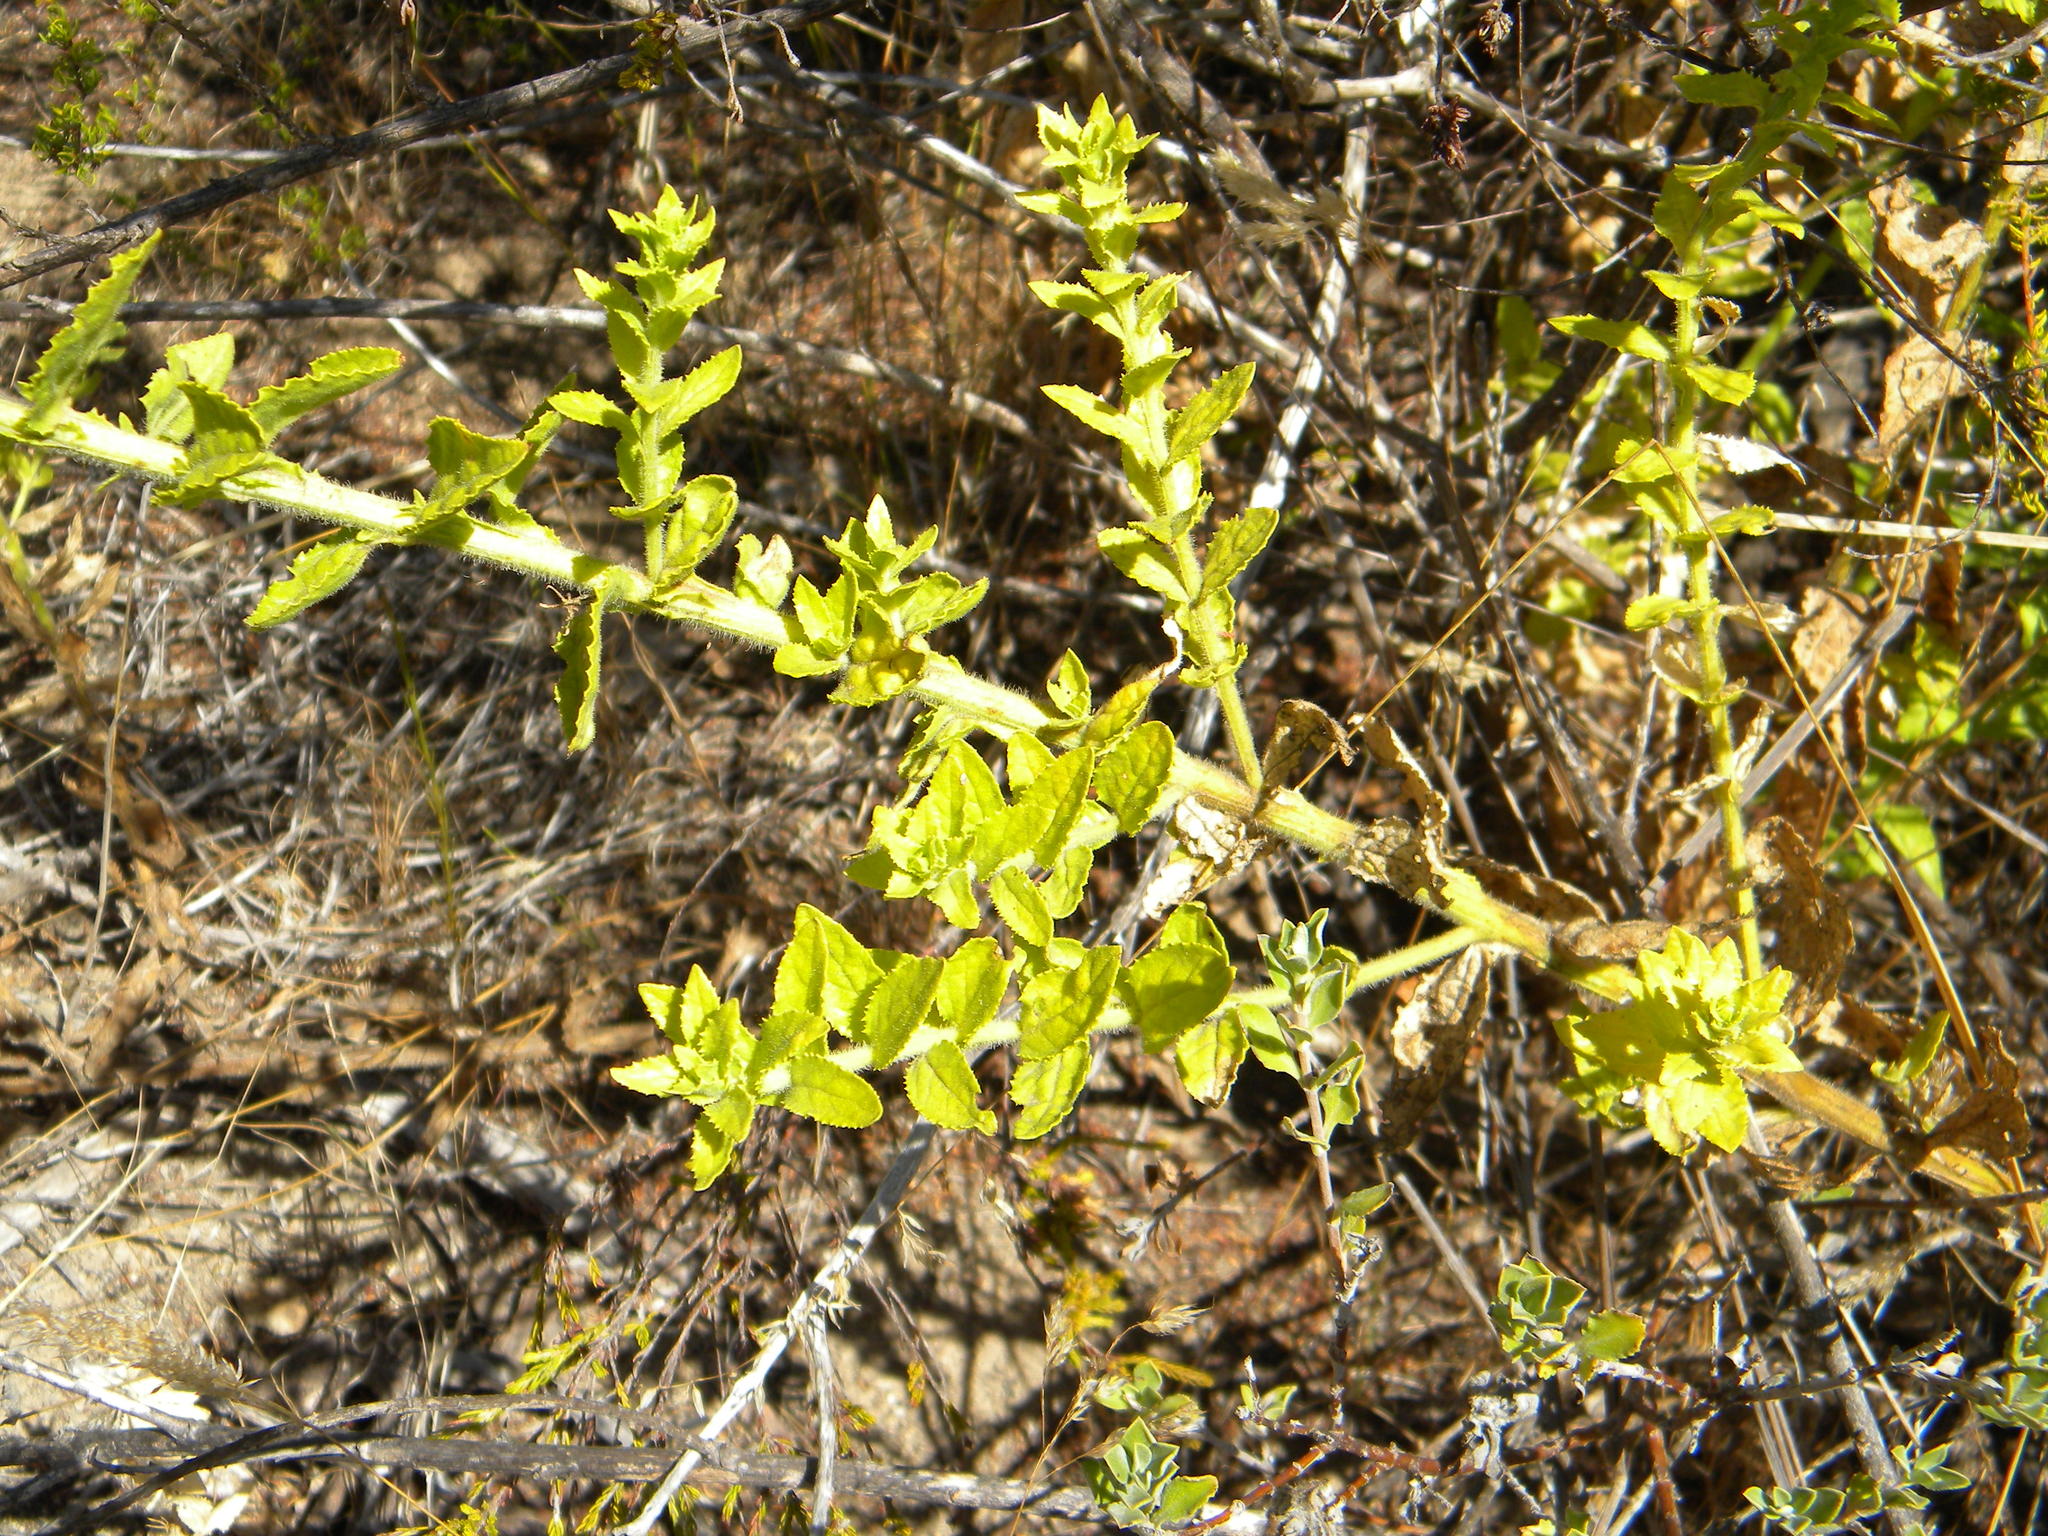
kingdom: Plantae
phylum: Tracheophyta
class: Magnoliopsida
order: Lamiales
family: Scrophulariaceae
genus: Oftia
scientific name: Oftia africana
